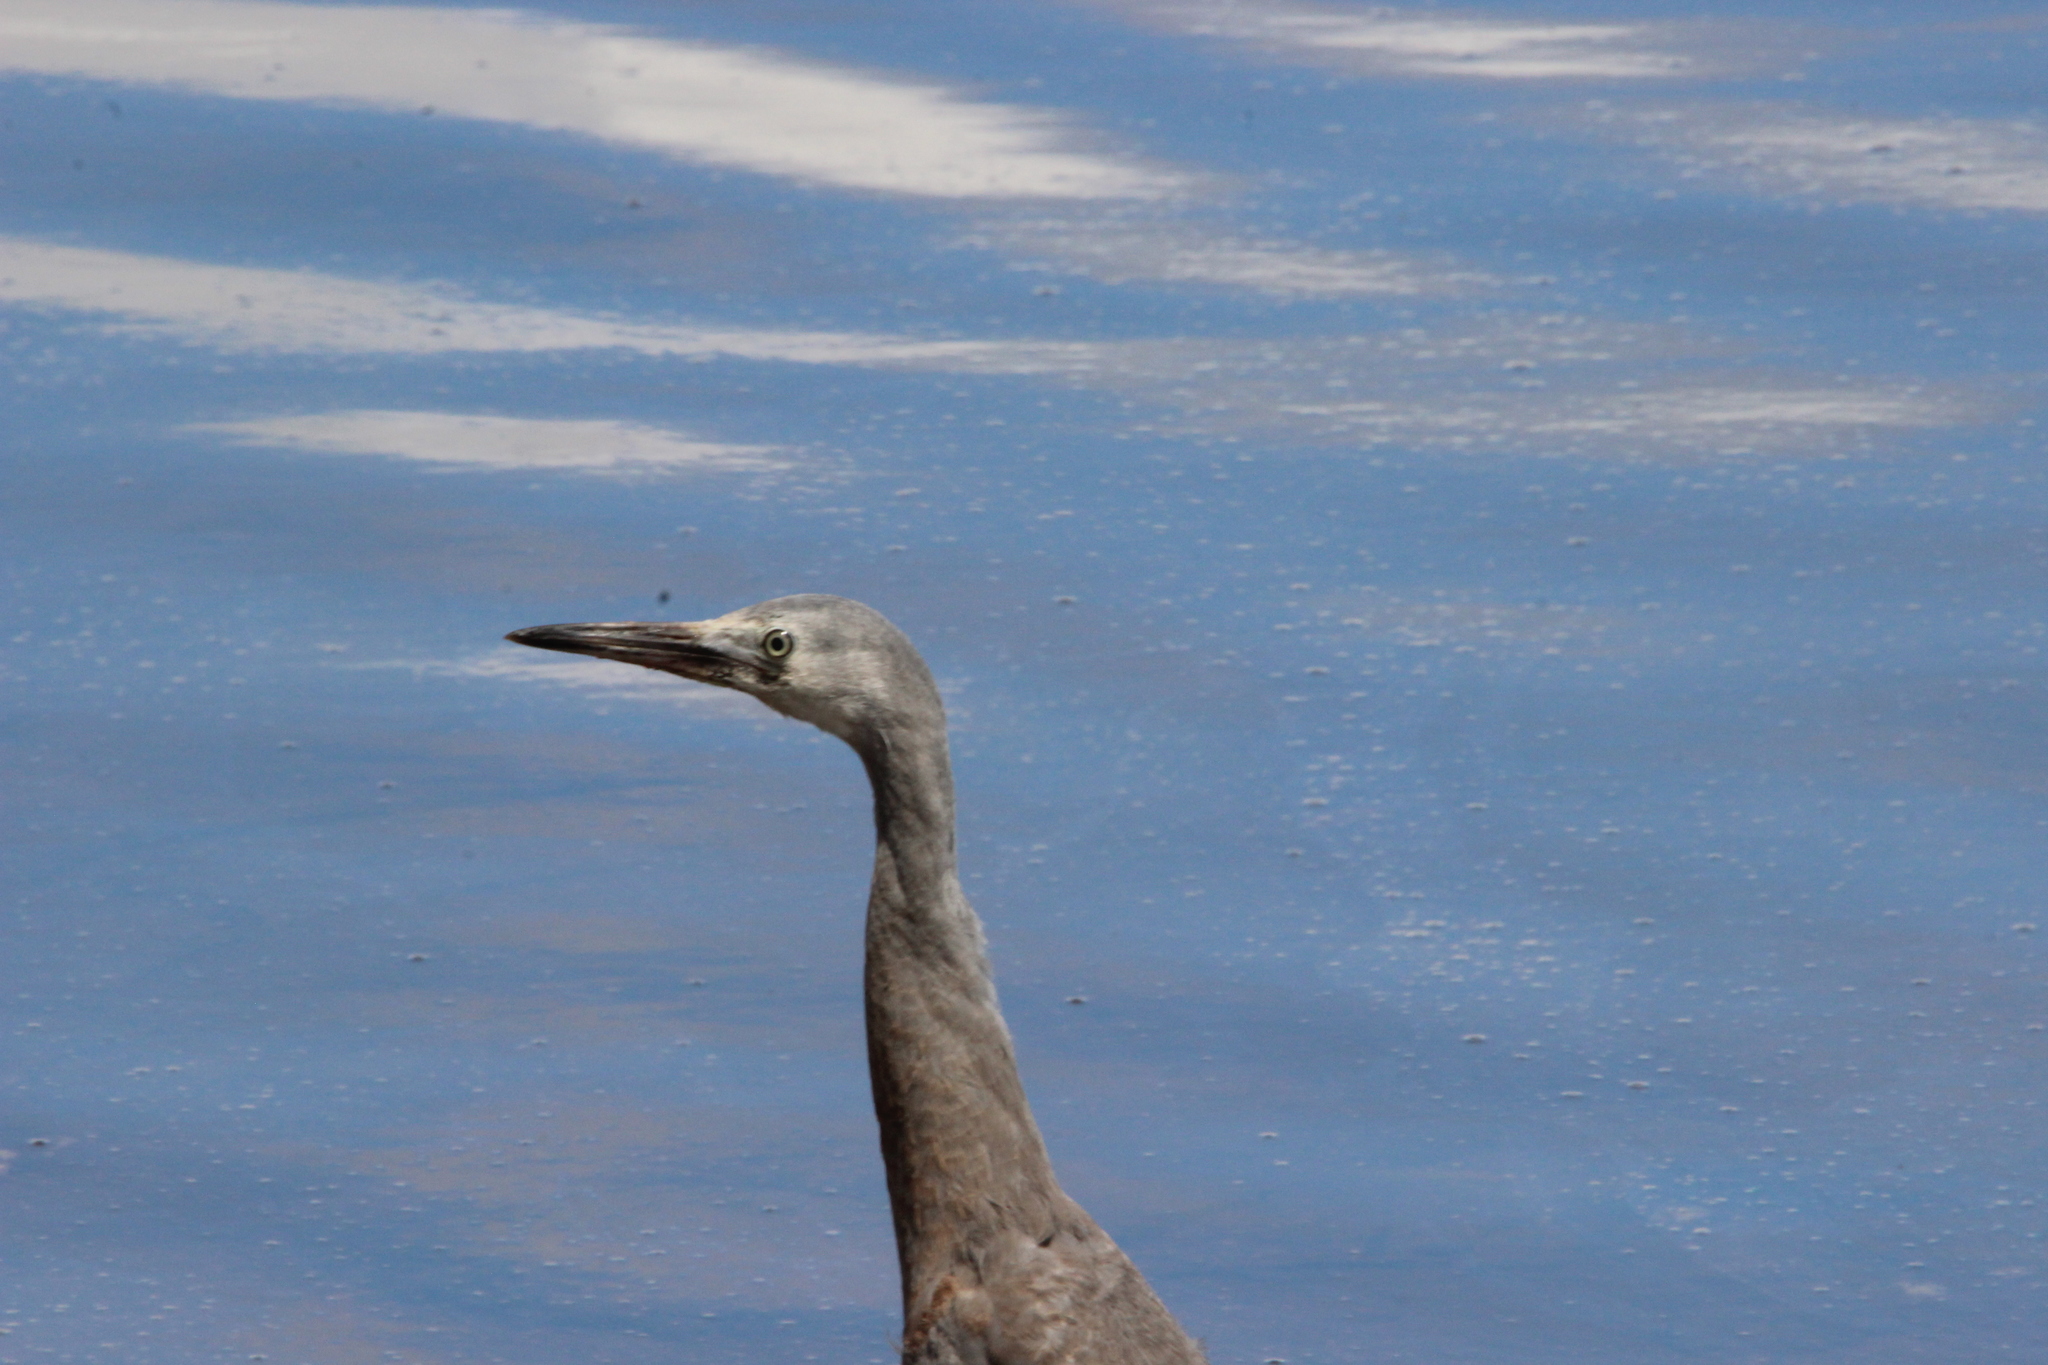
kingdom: Animalia
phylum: Chordata
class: Aves
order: Pelecaniformes
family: Ardeidae
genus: Egretta
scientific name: Egretta novaehollandiae
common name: White-faced heron
